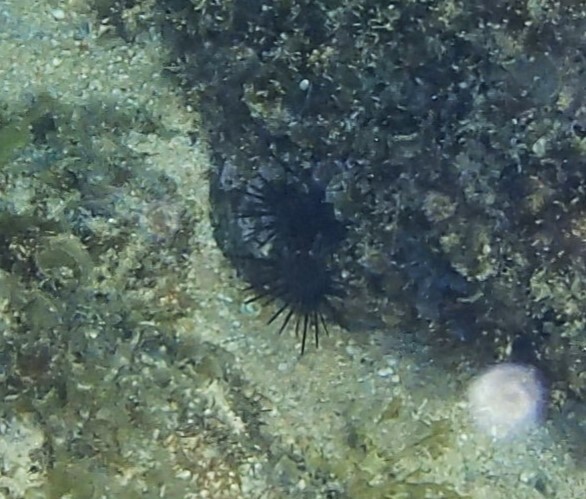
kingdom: Animalia
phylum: Echinodermata
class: Echinoidea
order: Camarodonta
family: Echinometridae
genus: Echinometra
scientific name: Echinometra vanbrunti
